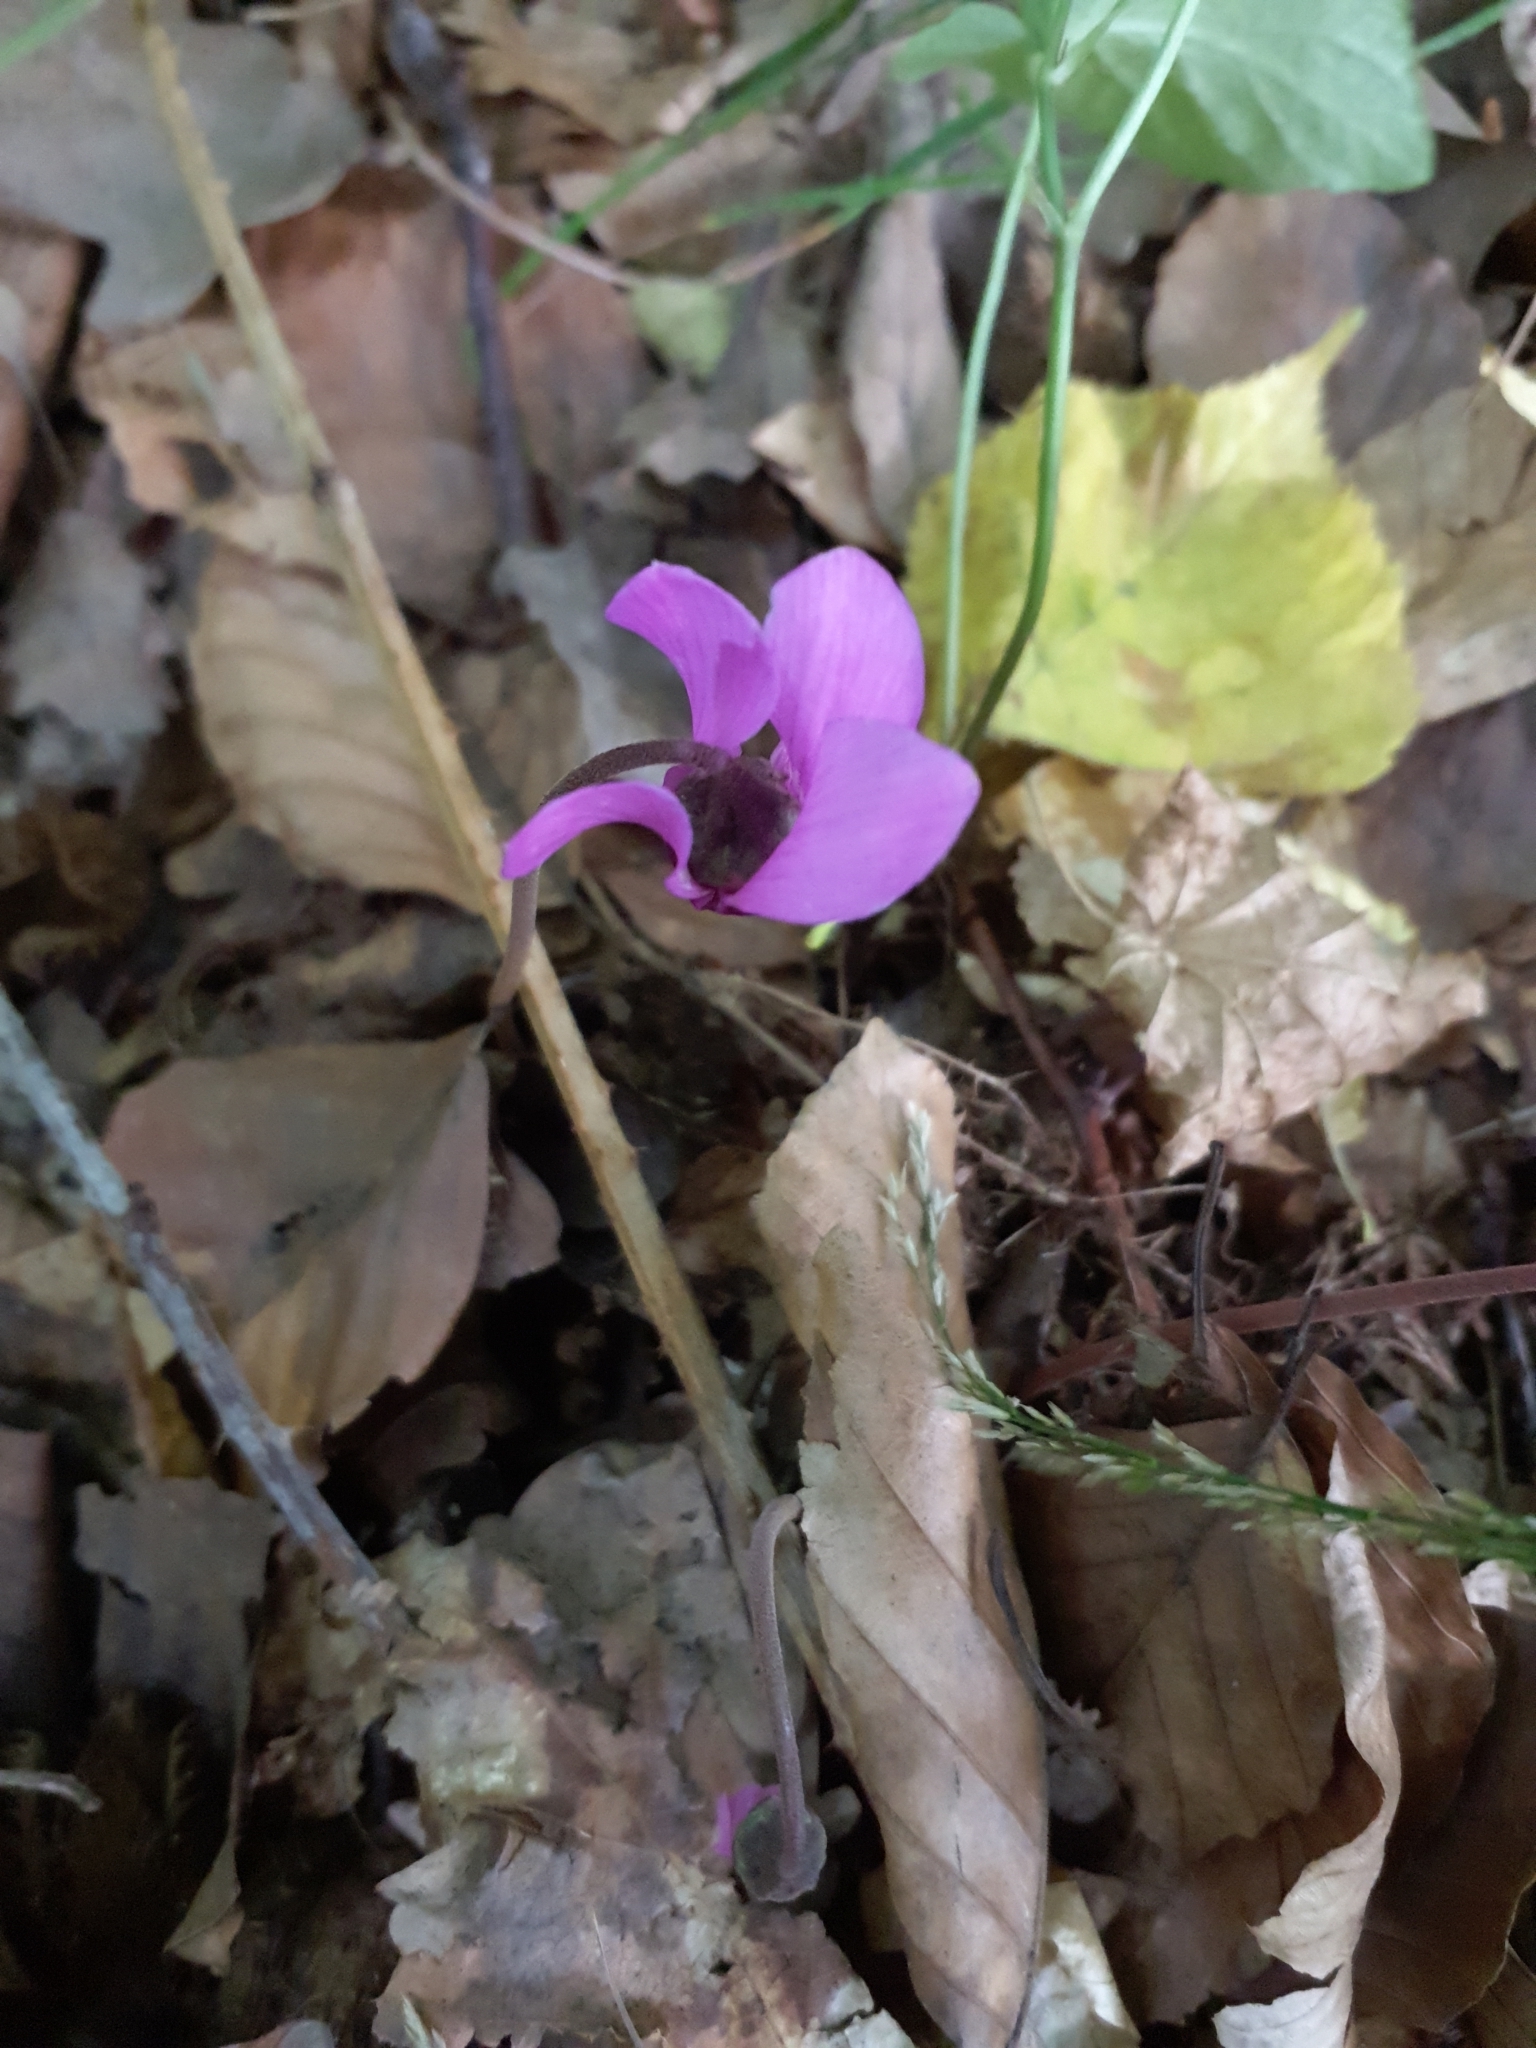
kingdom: Plantae
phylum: Tracheophyta
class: Magnoliopsida
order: Ericales
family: Primulaceae
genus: Cyclamen
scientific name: Cyclamen purpurascens
